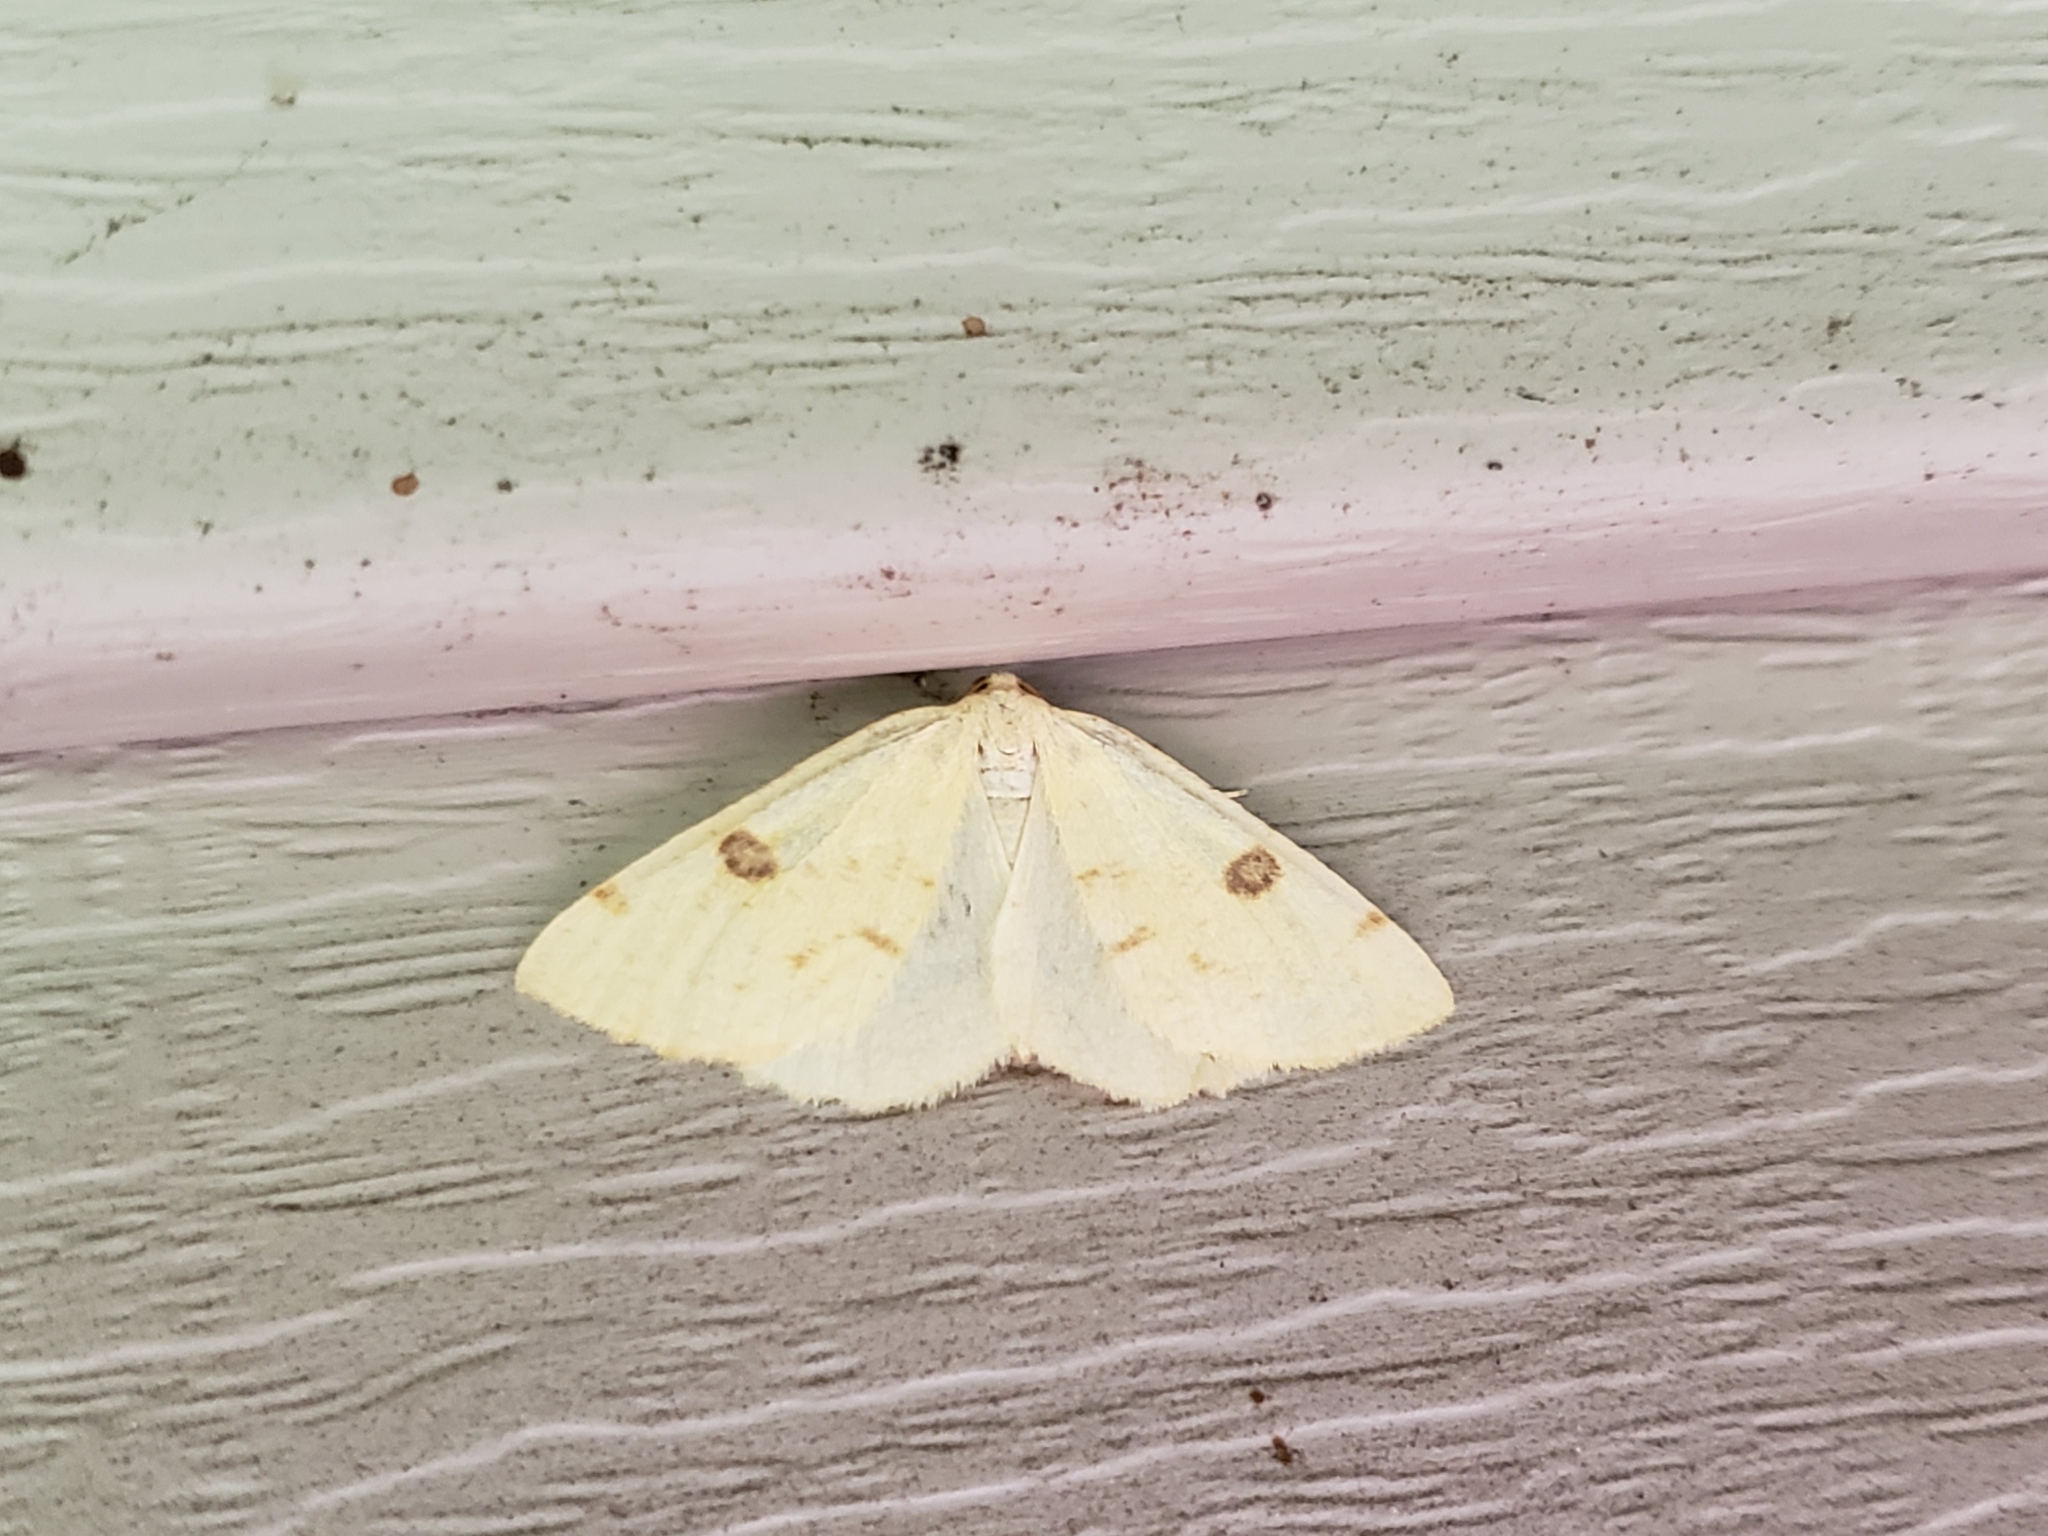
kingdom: Animalia
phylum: Arthropoda
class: Insecta
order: Lepidoptera
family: Geometridae
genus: Hesperumia
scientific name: Hesperumia sulphuraria
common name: Sulphur moth
